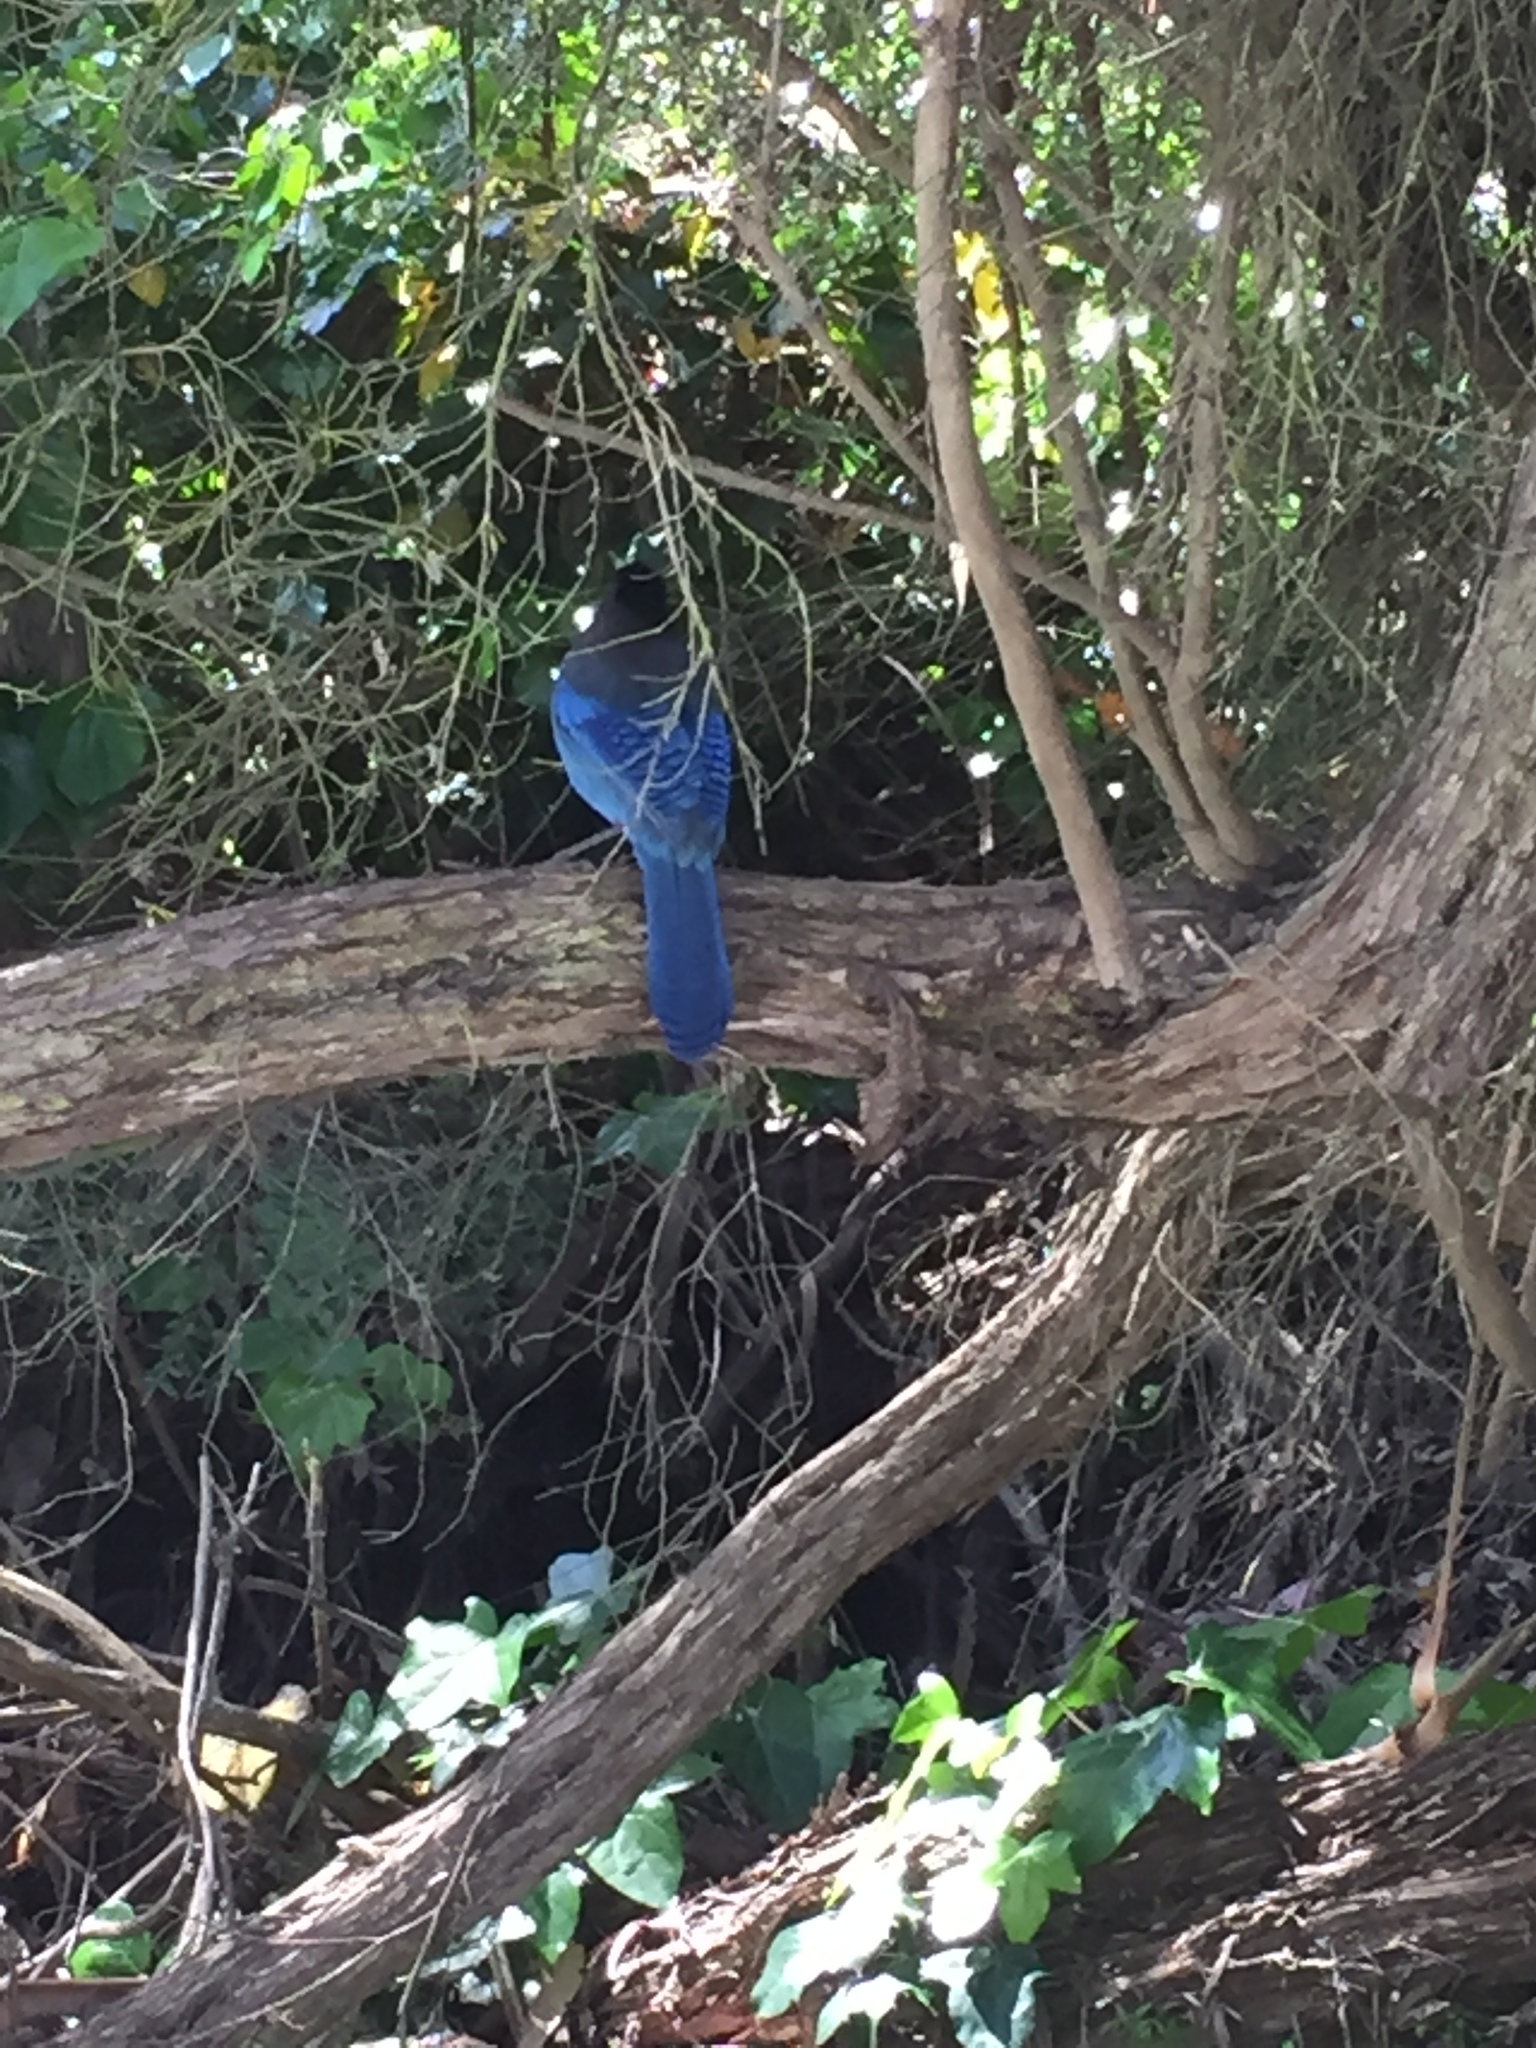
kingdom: Animalia
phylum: Chordata
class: Aves
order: Passeriformes
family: Corvidae
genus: Cyanocitta
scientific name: Cyanocitta stelleri
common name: Steller's jay
